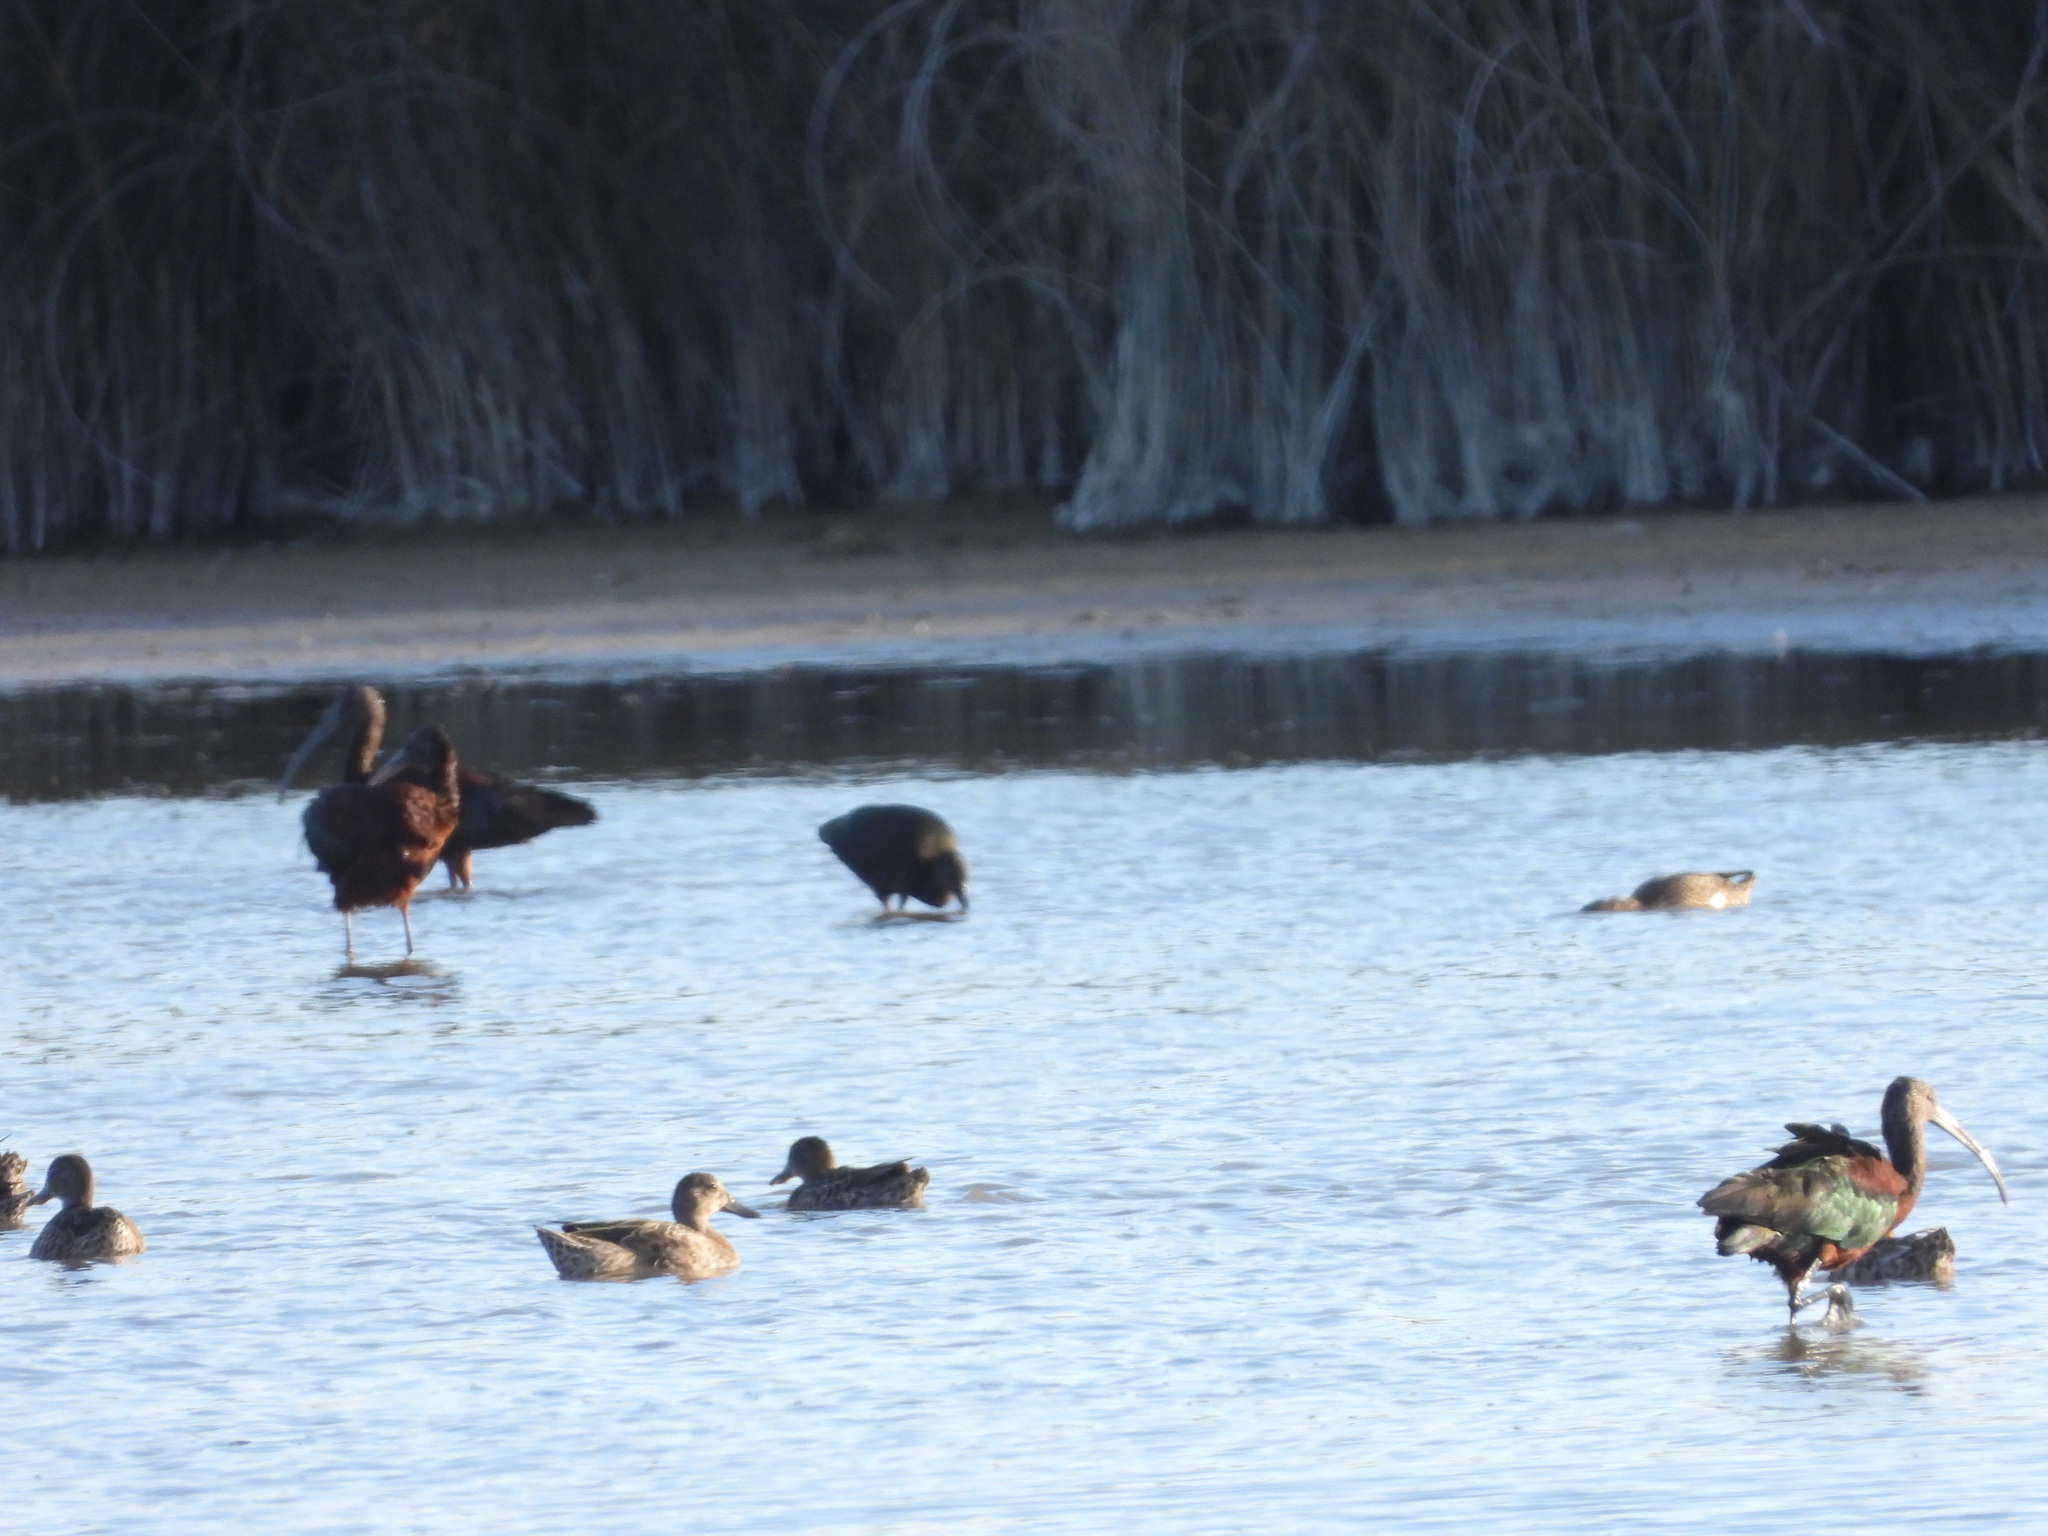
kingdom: Animalia
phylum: Chordata
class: Aves
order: Anseriformes
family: Anatidae
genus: Spatula
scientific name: Spatula discors
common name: Blue-winged teal
